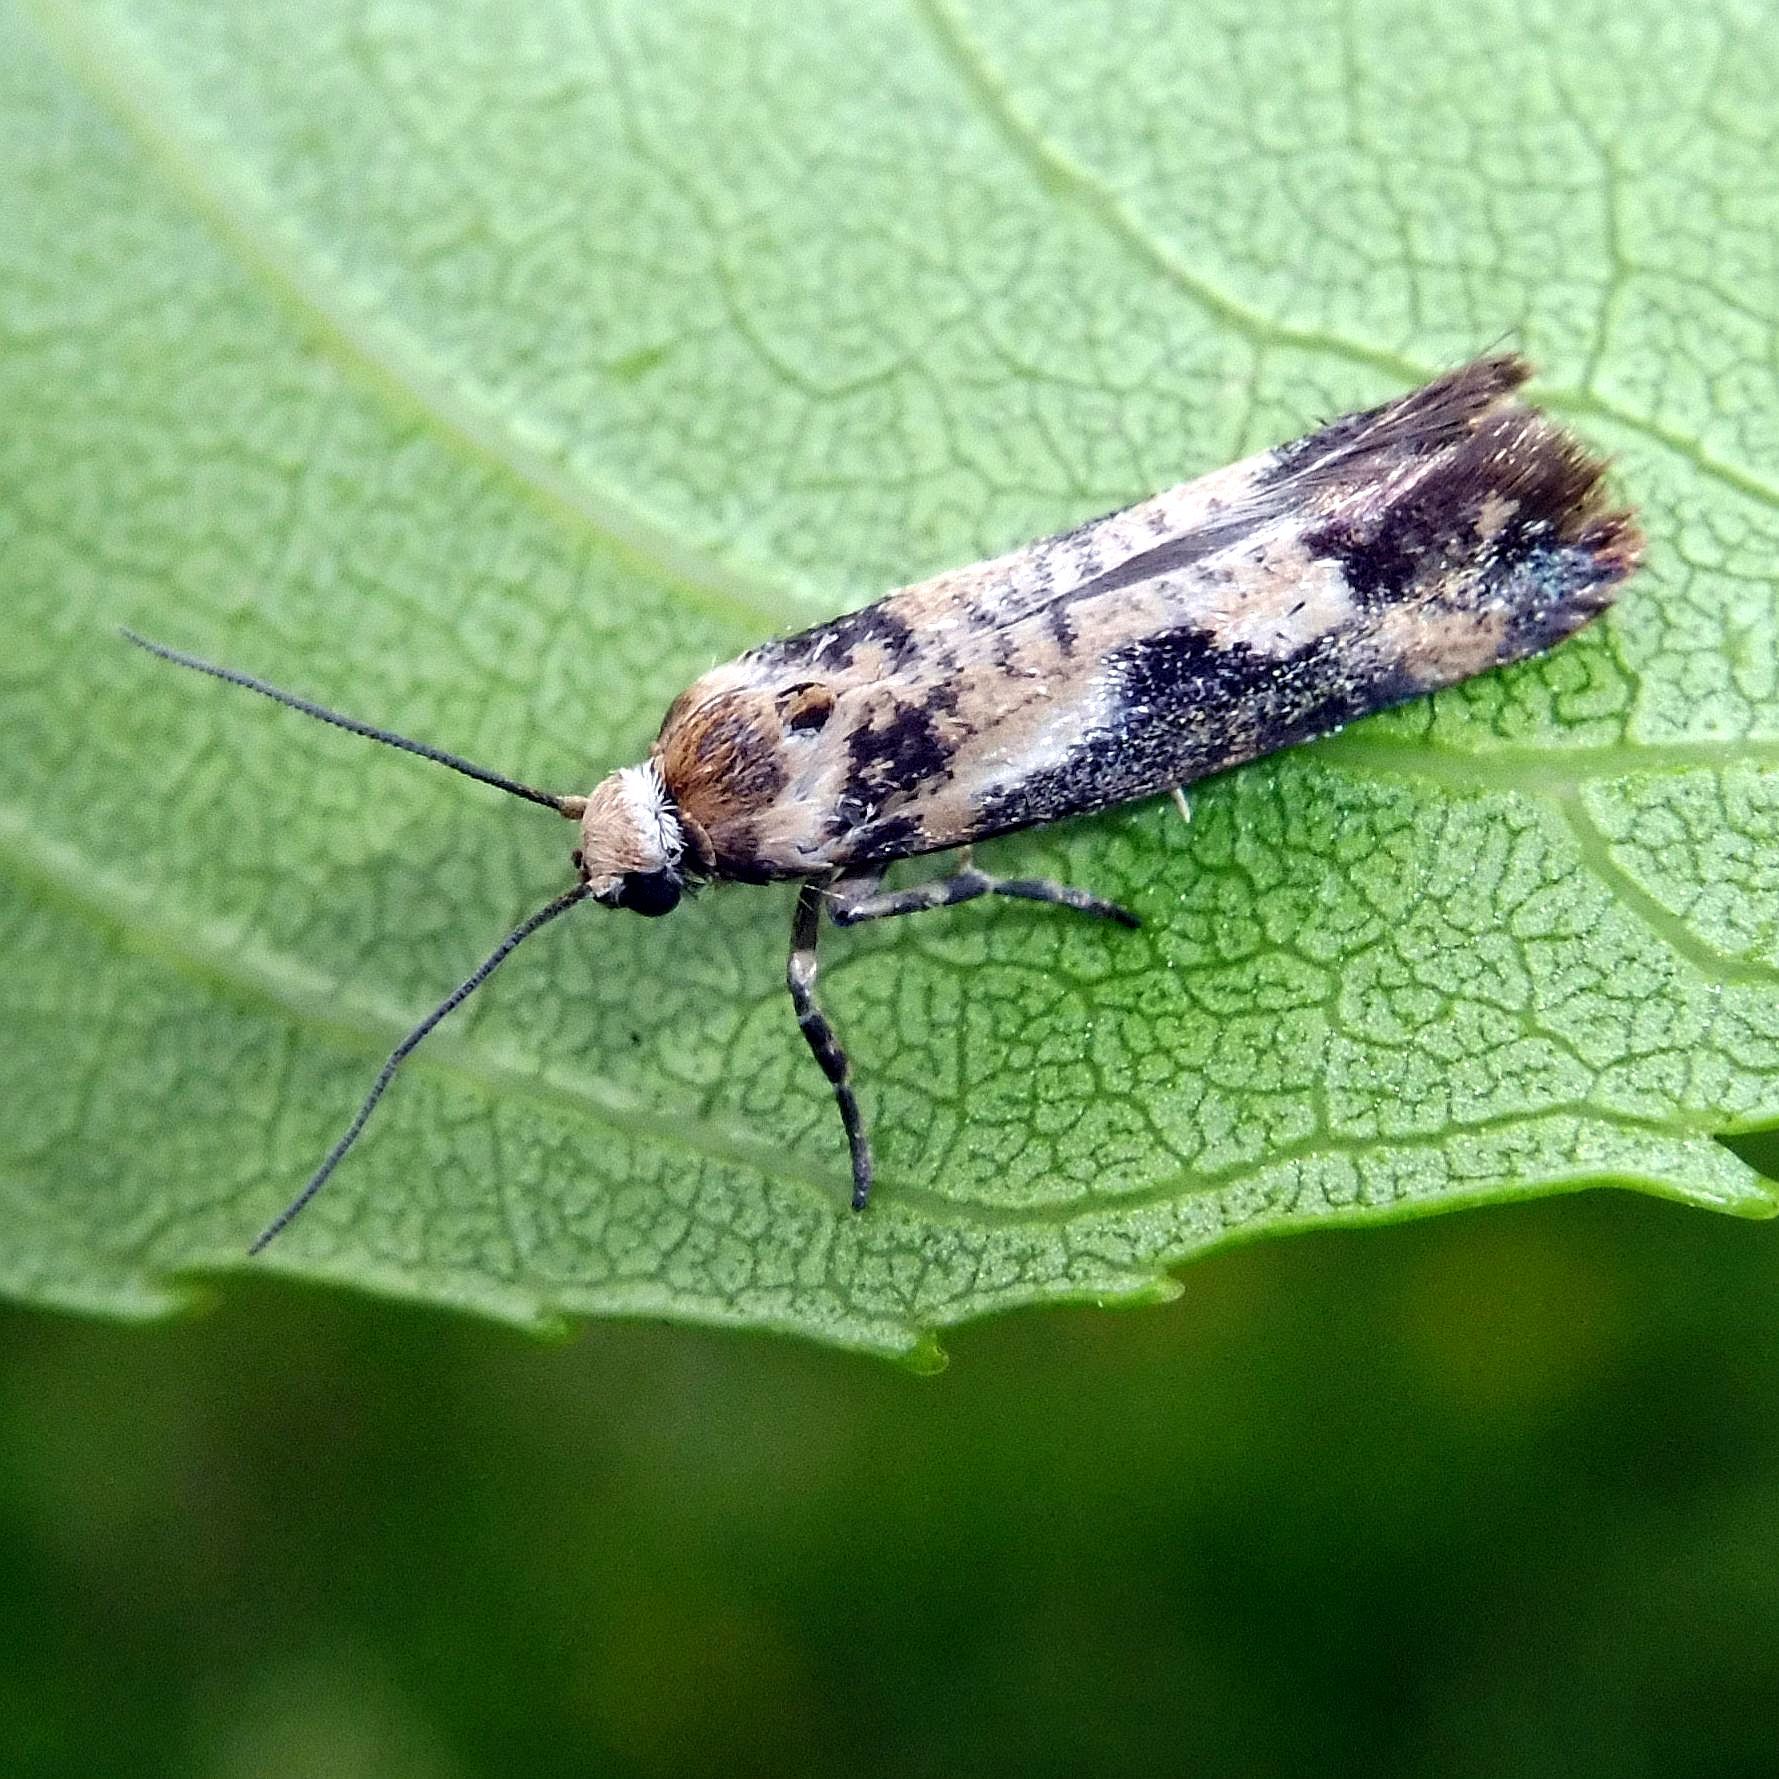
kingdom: Animalia
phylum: Arthropoda
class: Insecta
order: Lepidoptera
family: Praydidae
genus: Prays
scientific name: Prays fraxinella
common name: Ash bud moth
